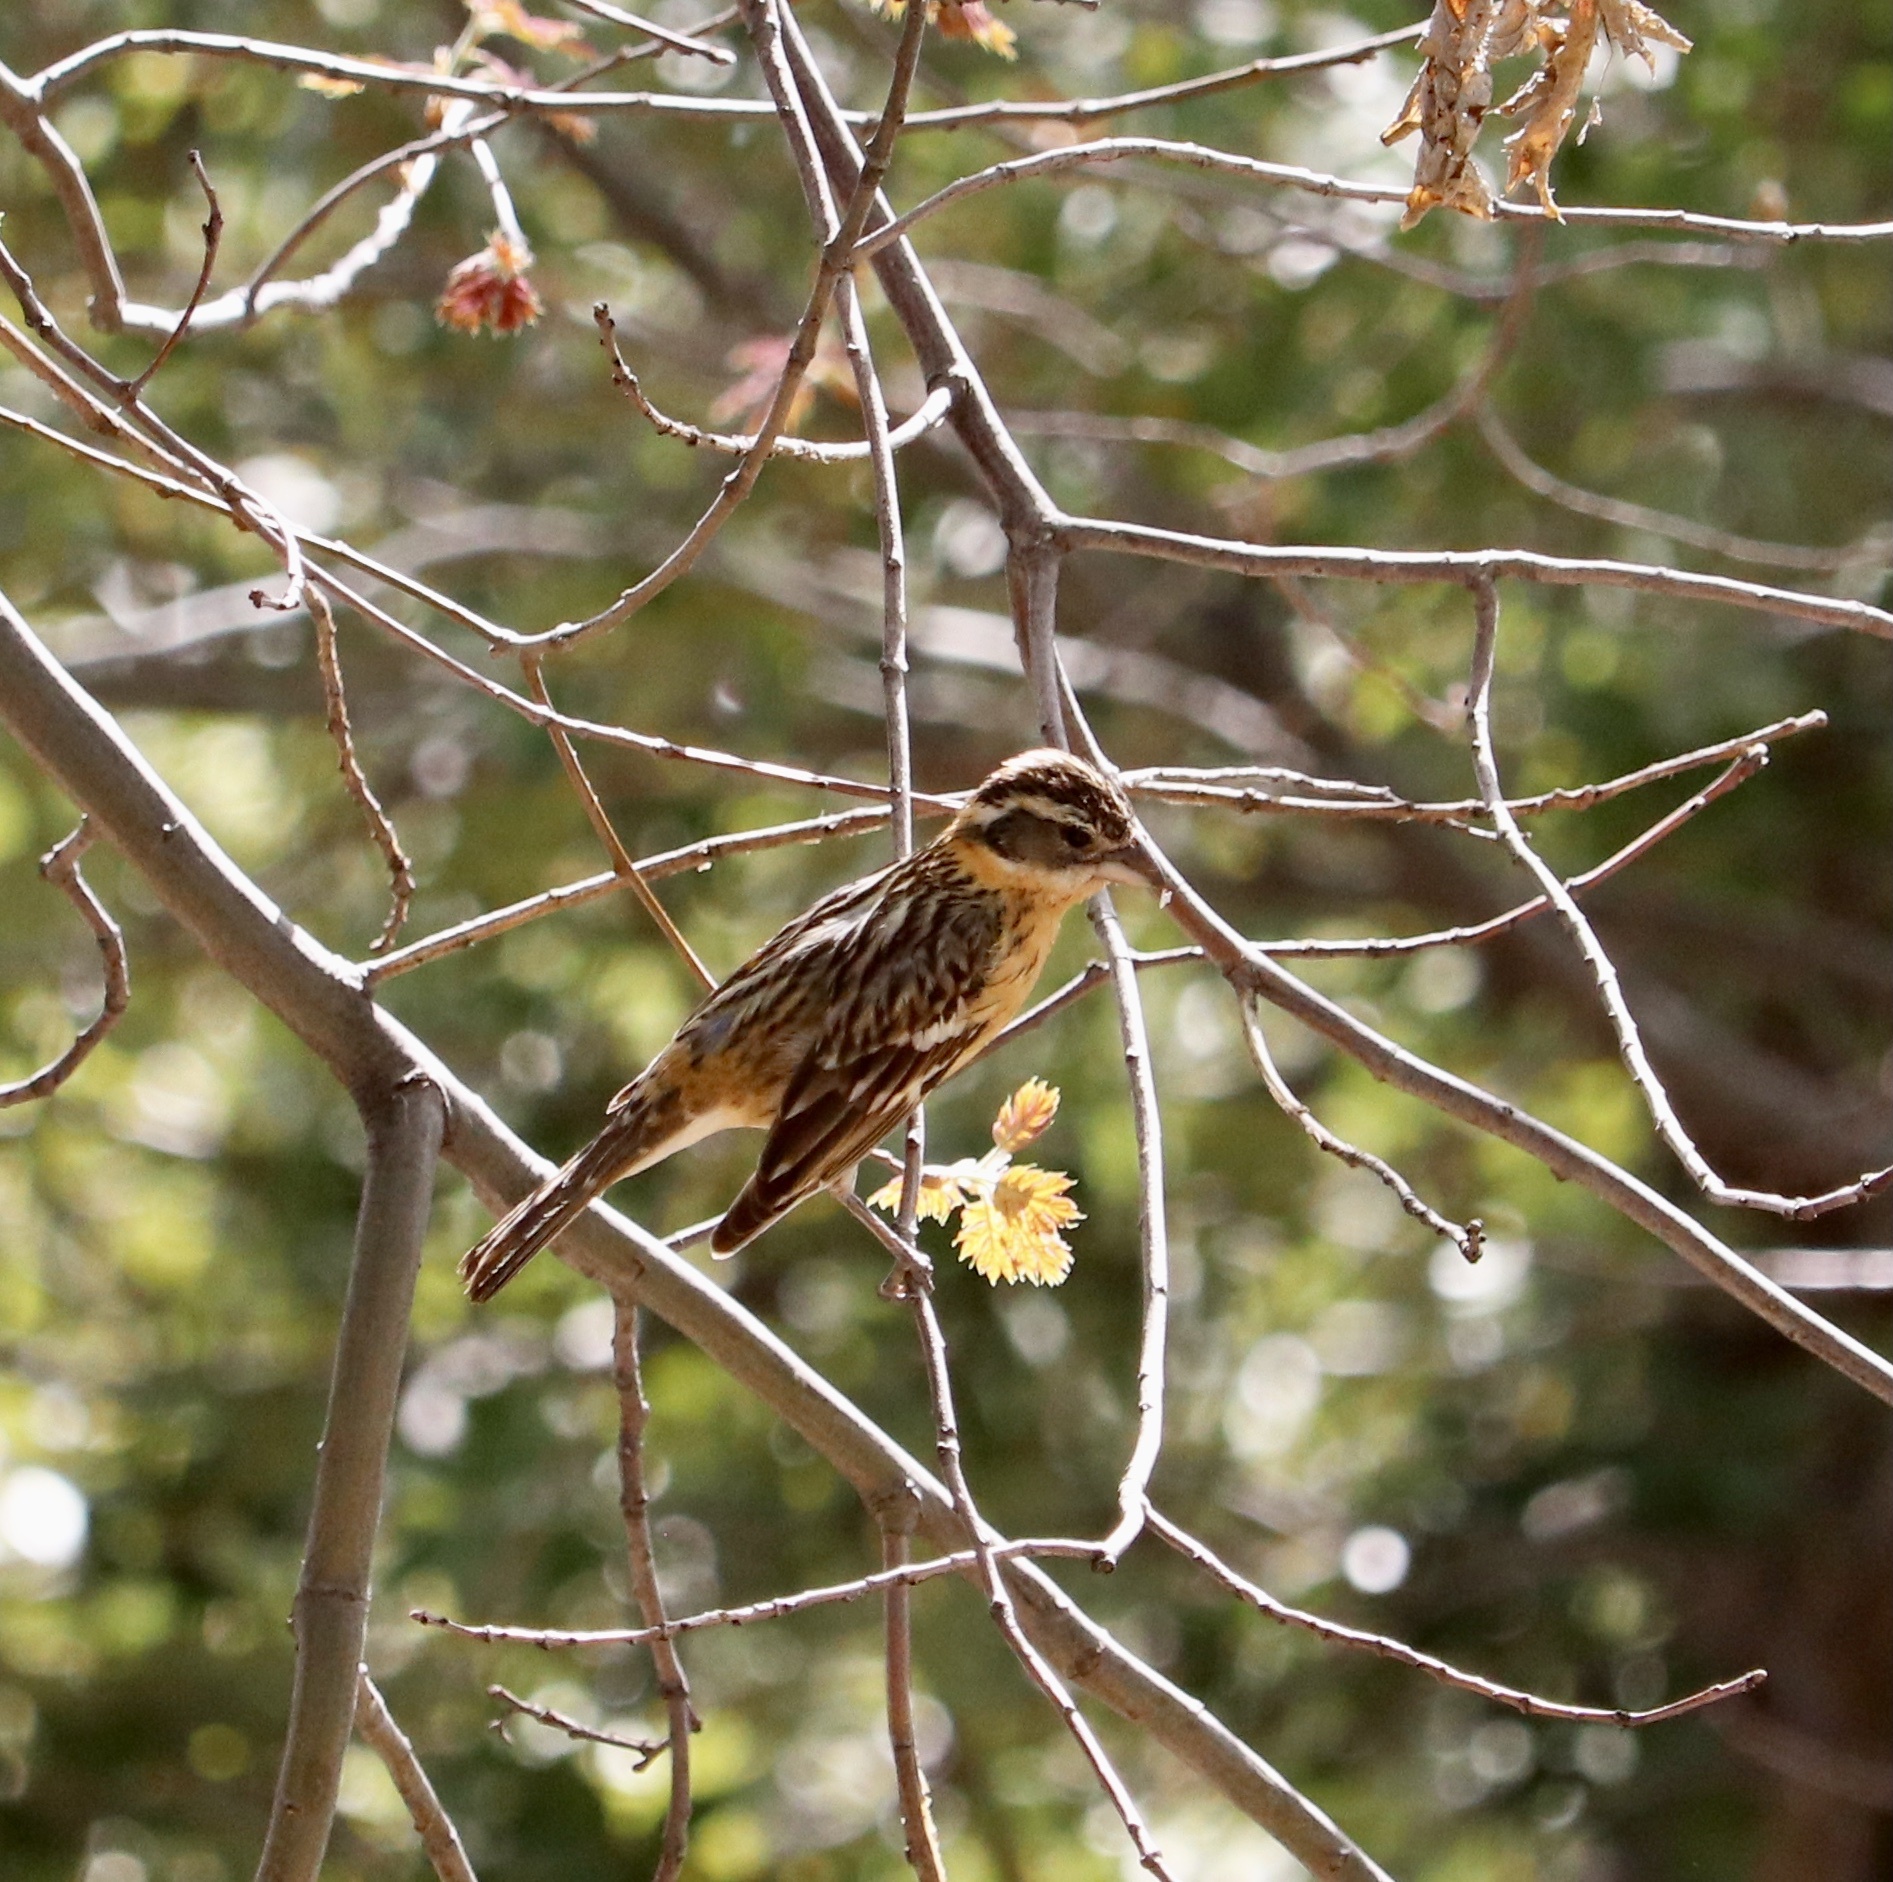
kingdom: Animalia
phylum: Chordata
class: Aves
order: Passeriformes
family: Cardinalidae
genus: Pheucticus
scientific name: Pheucticus melanocephalus
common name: Black-headed grosbeak
